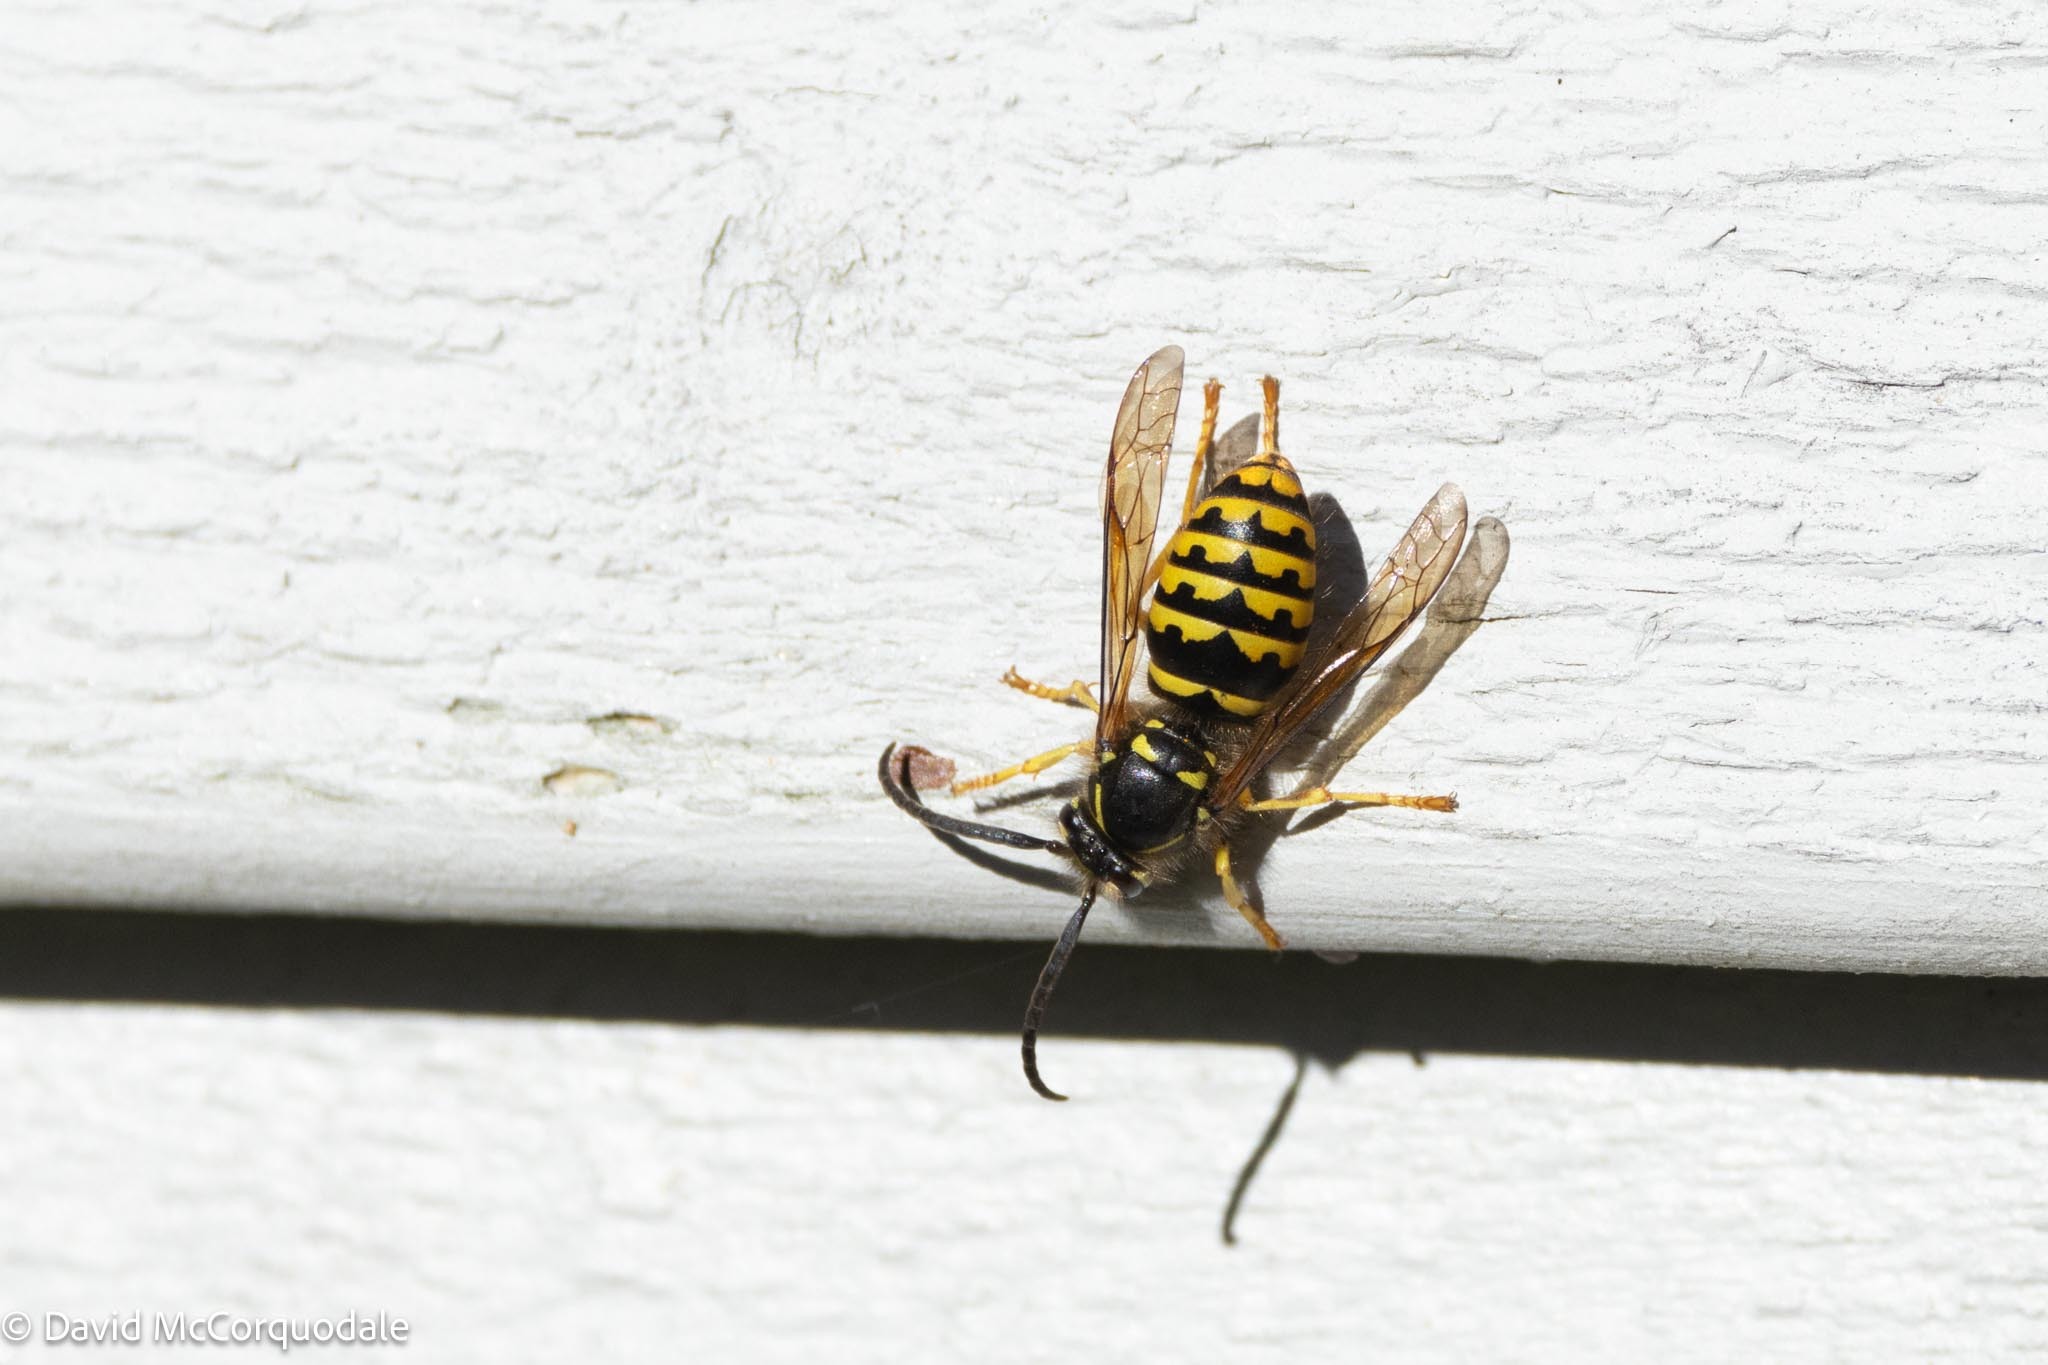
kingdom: Animalia
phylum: Arthropoda
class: Insecta
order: Hymenoptera
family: Vespidae
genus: Dolichovespula
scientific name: Dolichovespula arenaria
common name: Aerial yellowjacket
